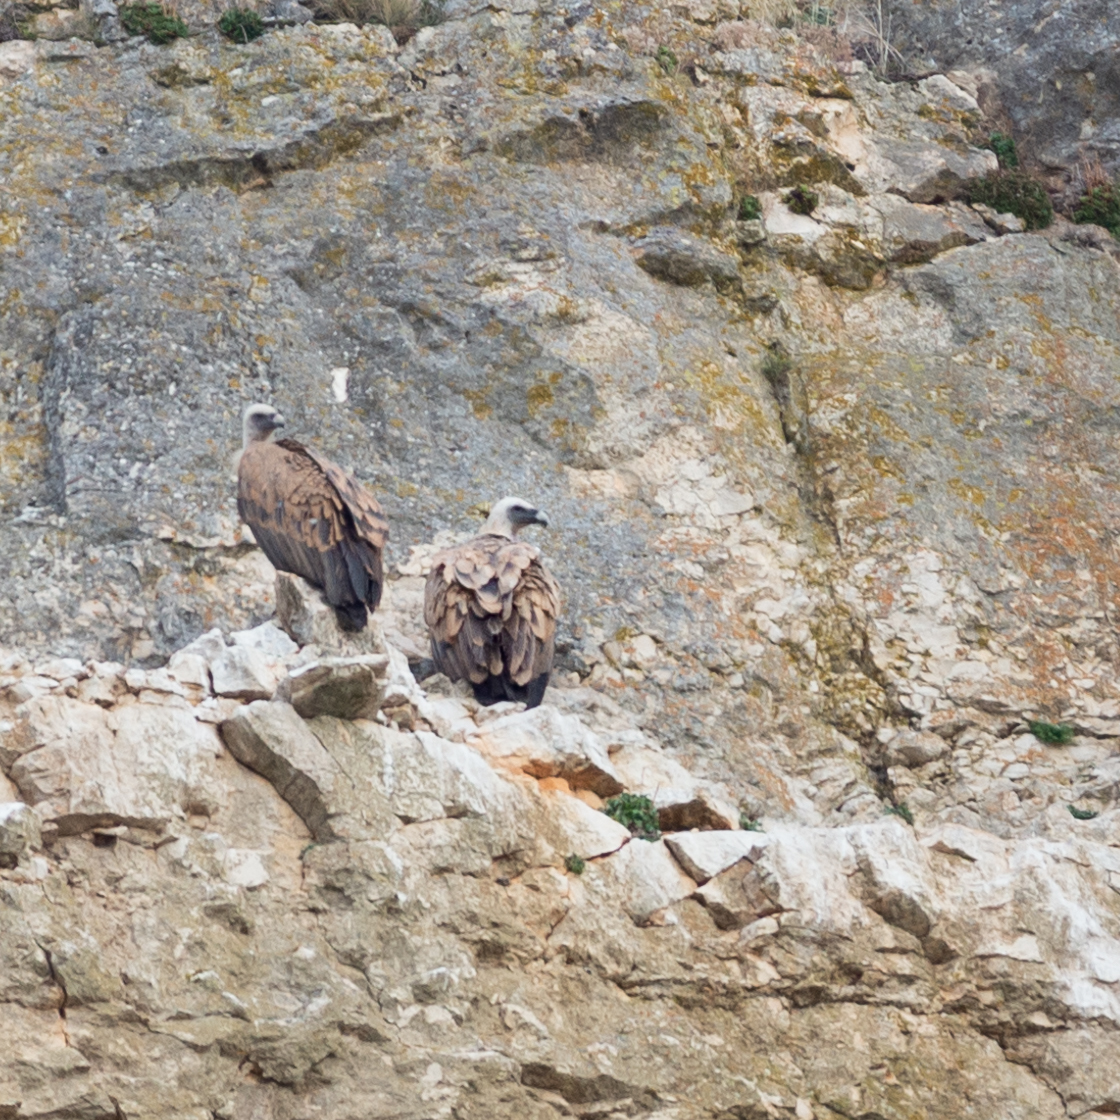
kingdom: Animalia
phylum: Chordata
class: Aves
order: Accipitriformes
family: Accipitridae
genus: Gyps
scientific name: Gyps fulvus
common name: Griffon vulture
